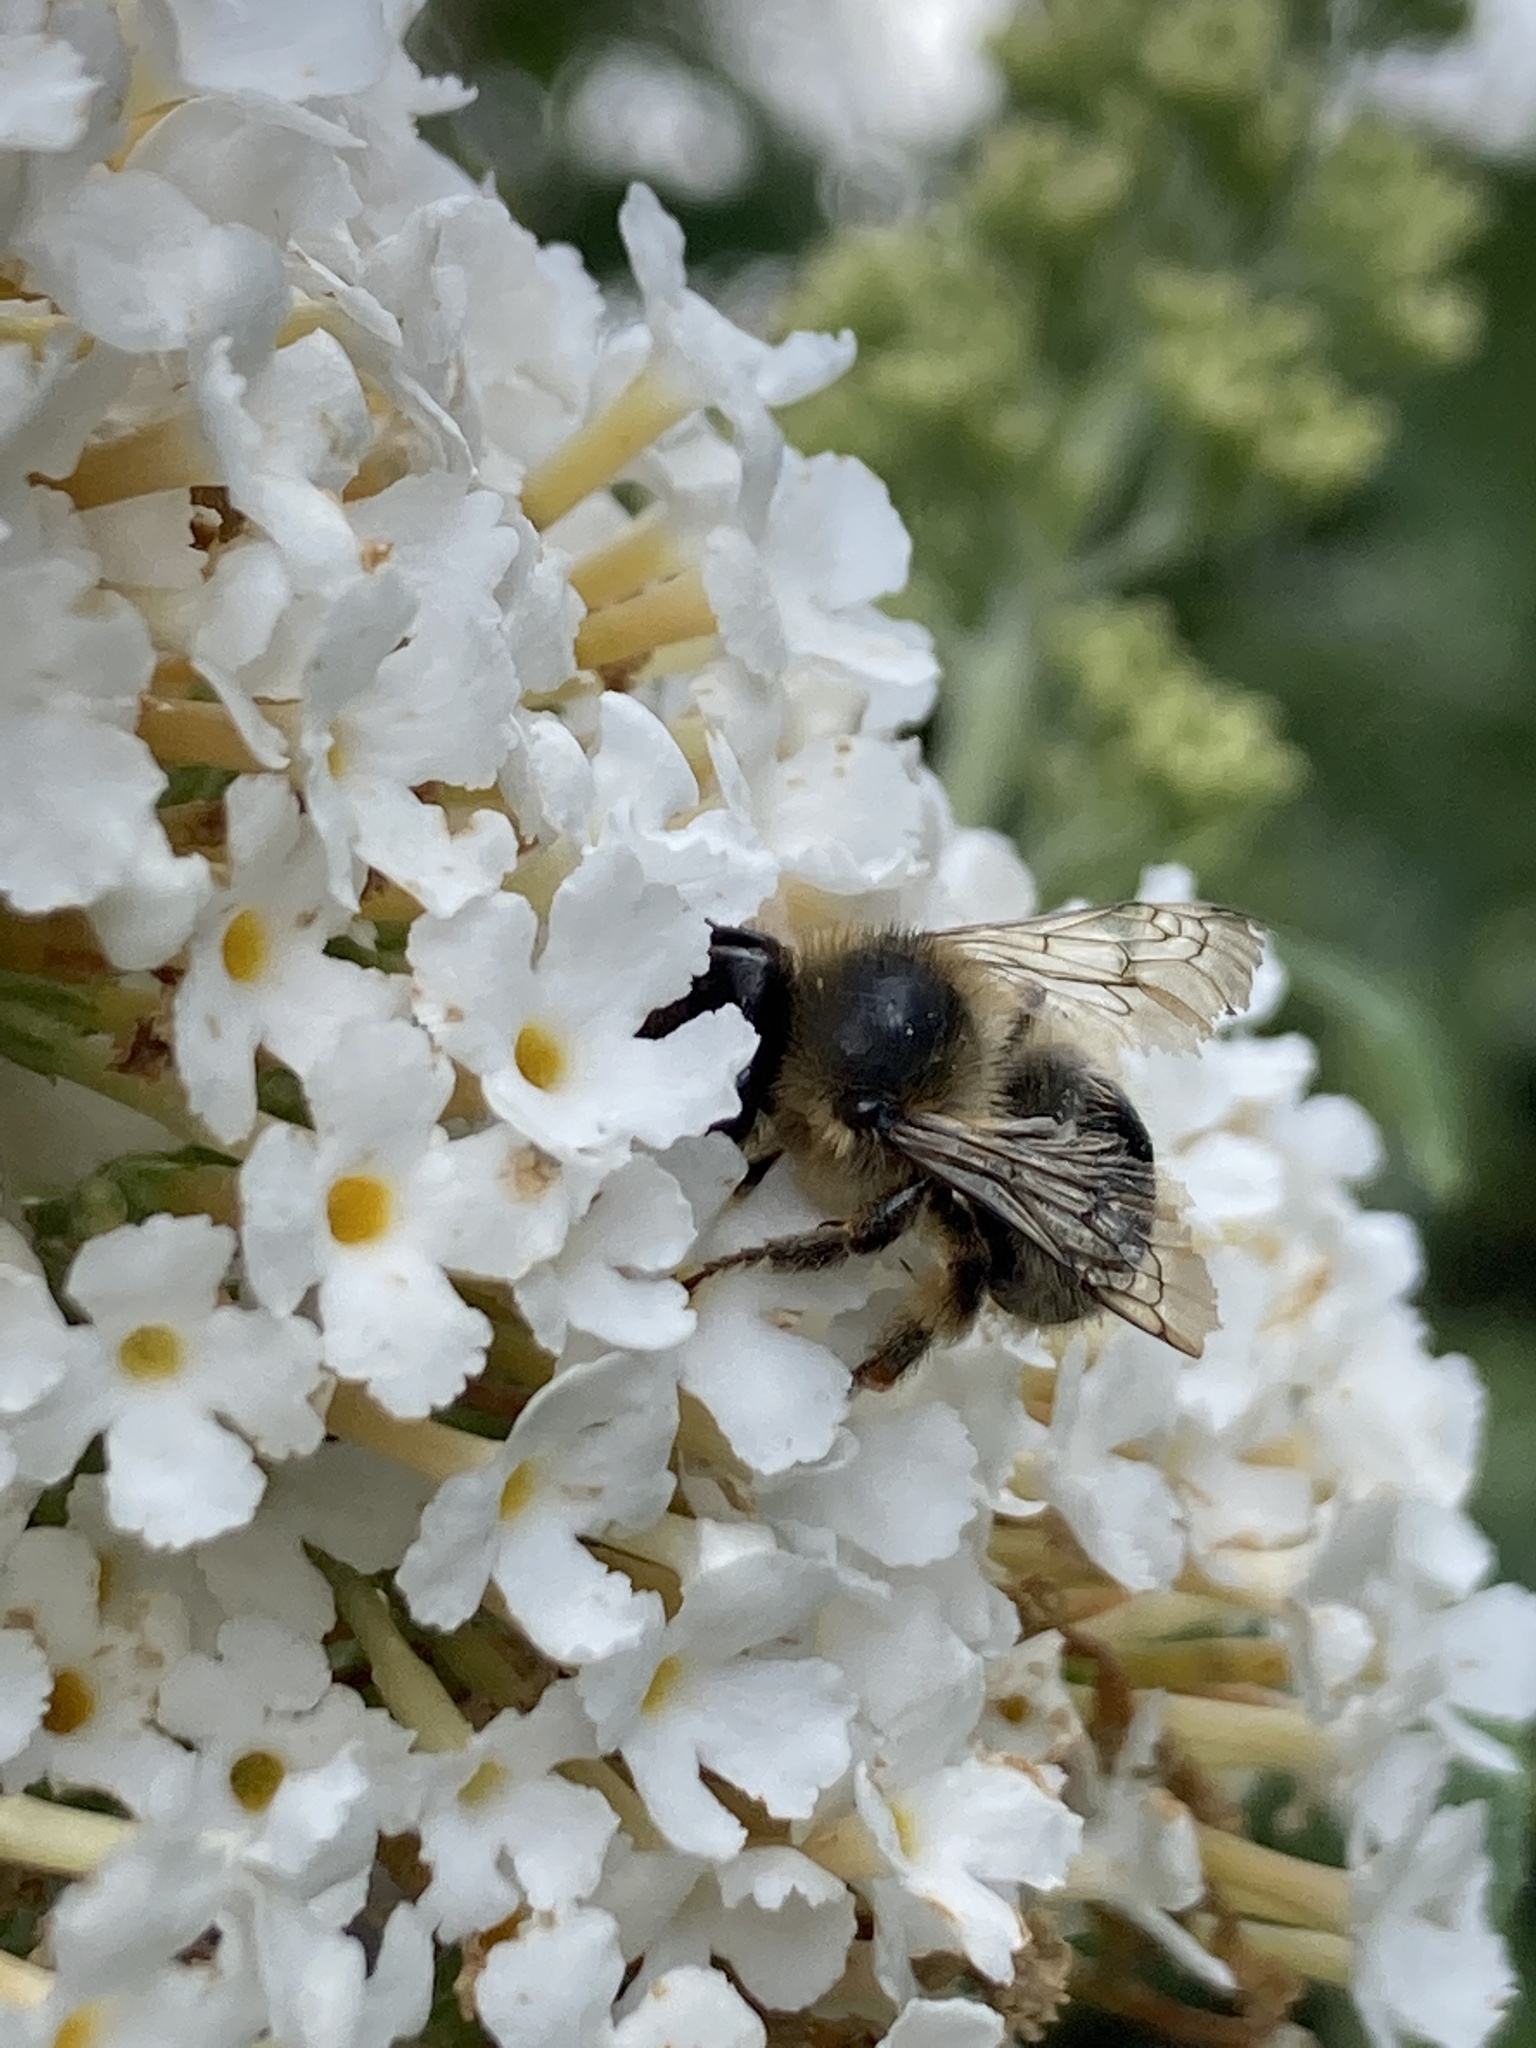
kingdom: Animalia
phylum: Arthropoda
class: Insecta
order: Hymenoptera
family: Apidae
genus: Anthophora
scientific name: Anthophora furcata
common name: Fork-tailed flower bee
